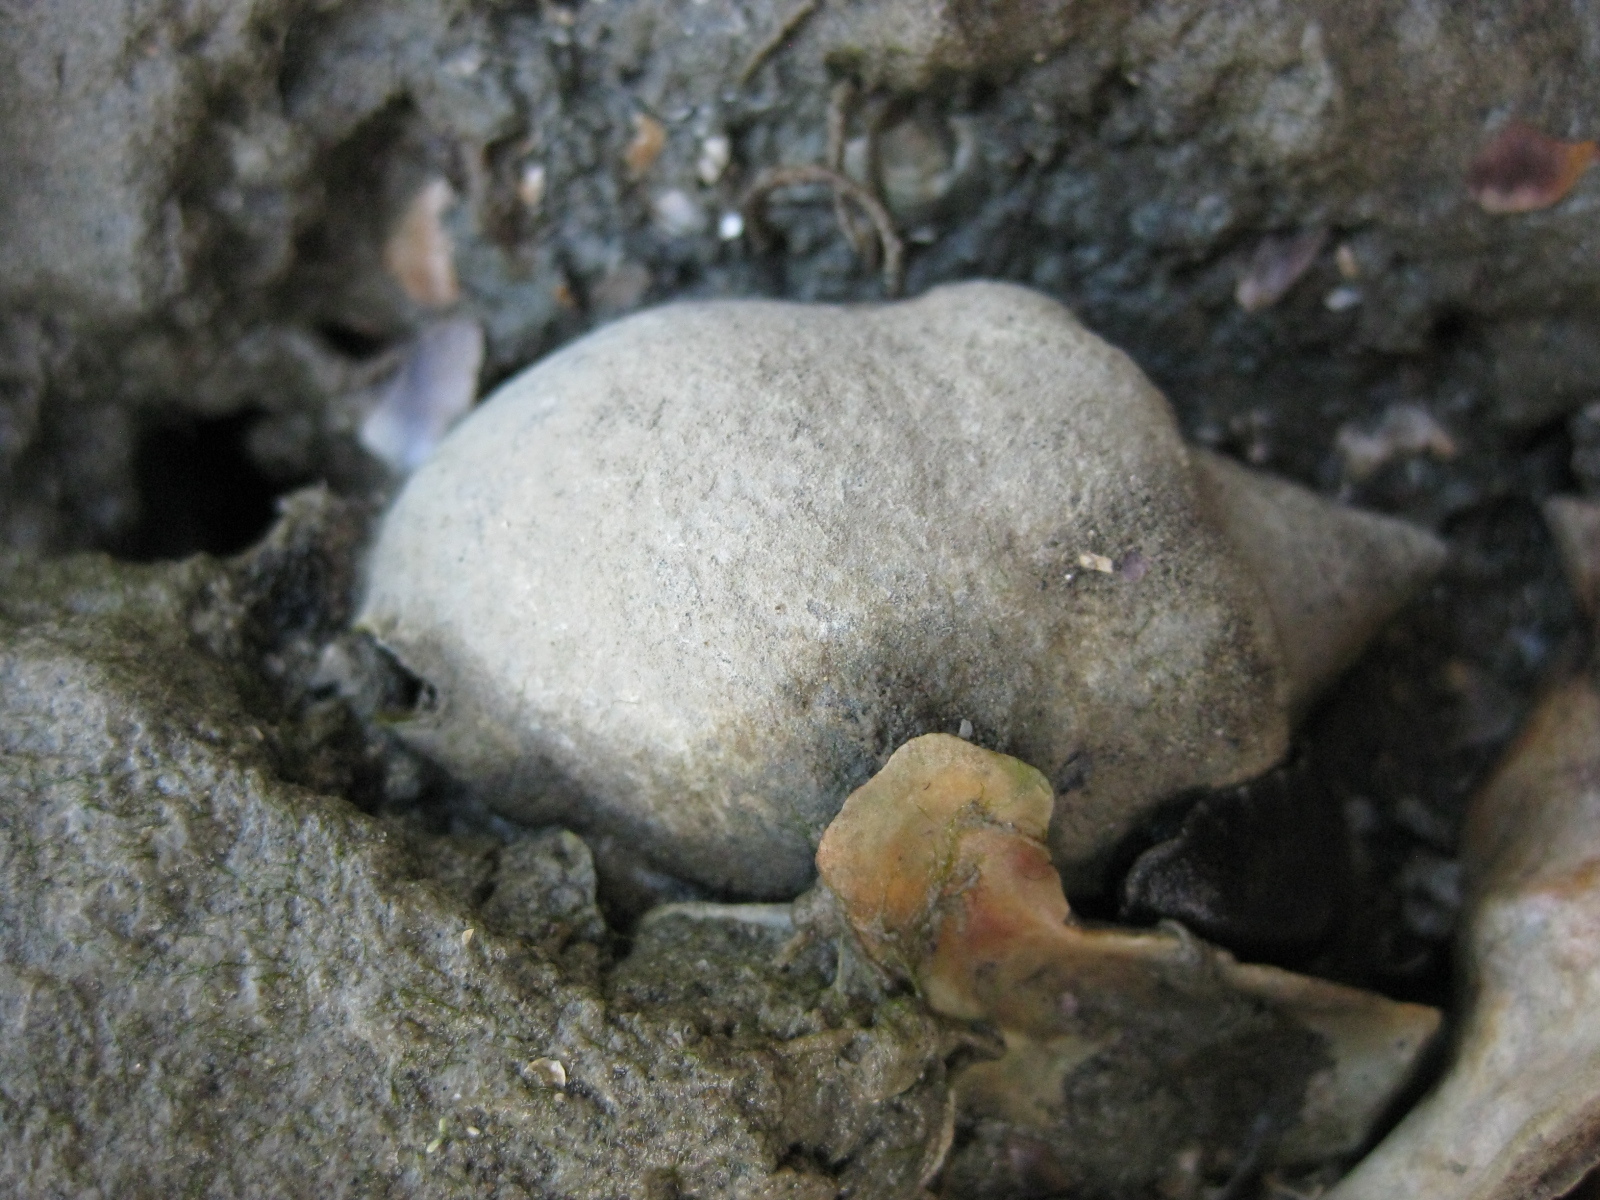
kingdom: Animalia
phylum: Mollusca
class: Gastropoda
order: Neogastropoda
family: Cominellidae
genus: Cominella
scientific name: Cominella adspersa
